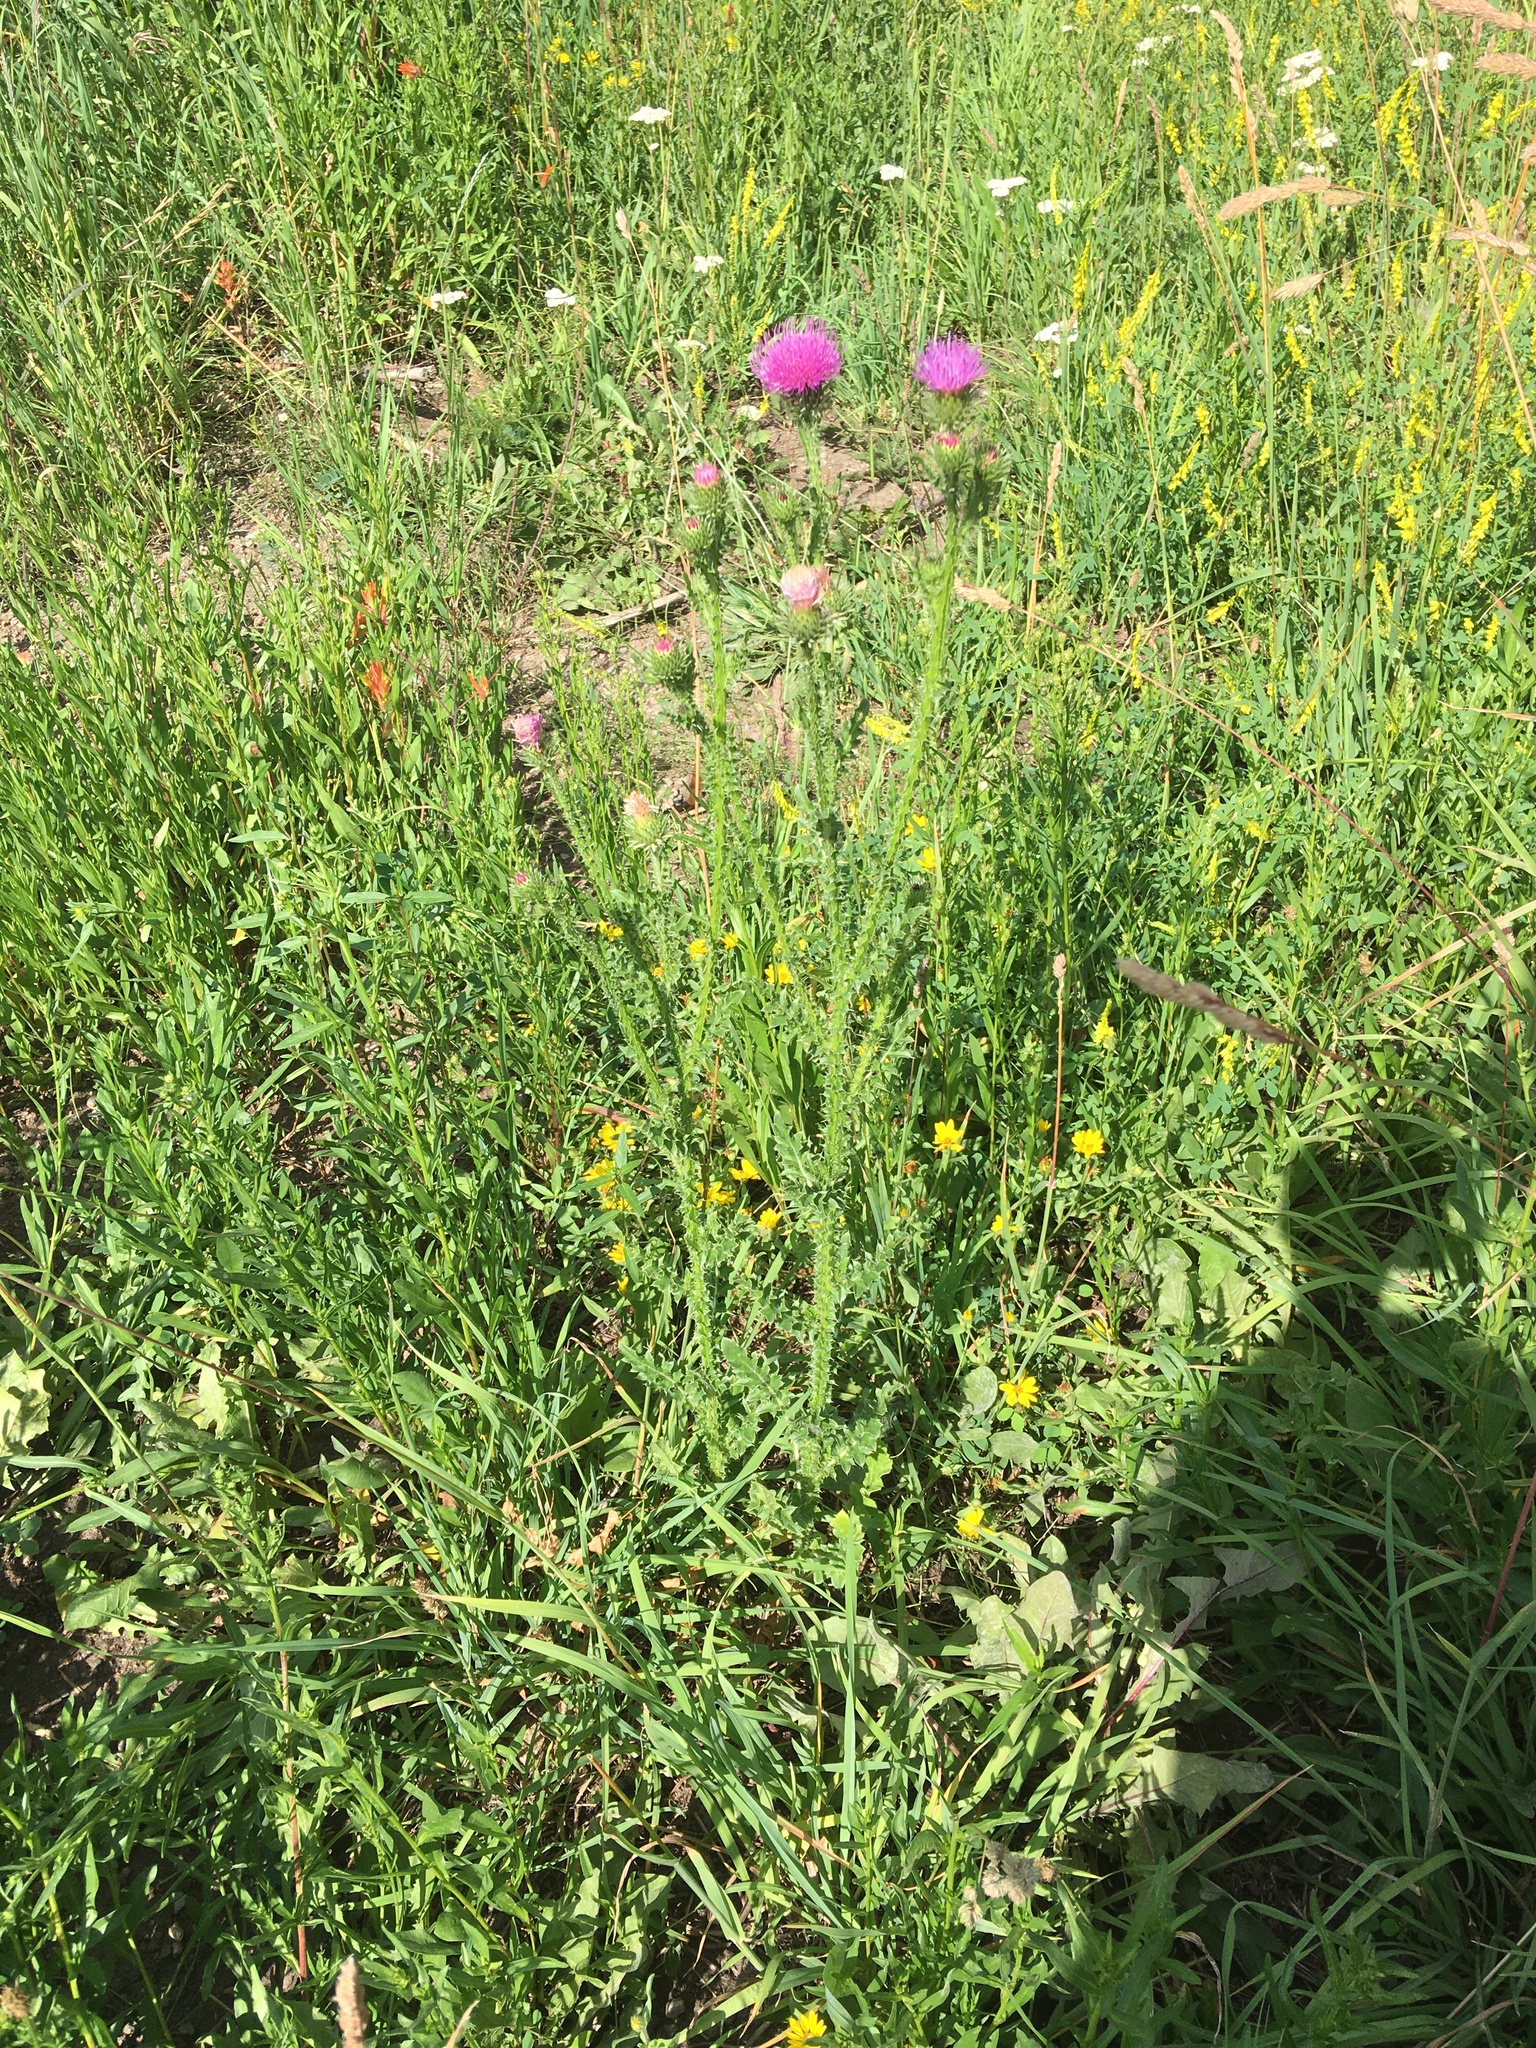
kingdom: Plantae
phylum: Tracheophyta
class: Magnoliopsida
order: Asterales
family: Asteraceae
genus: Carduus
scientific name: Carduus acanthoides
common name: Plumeless thistle
